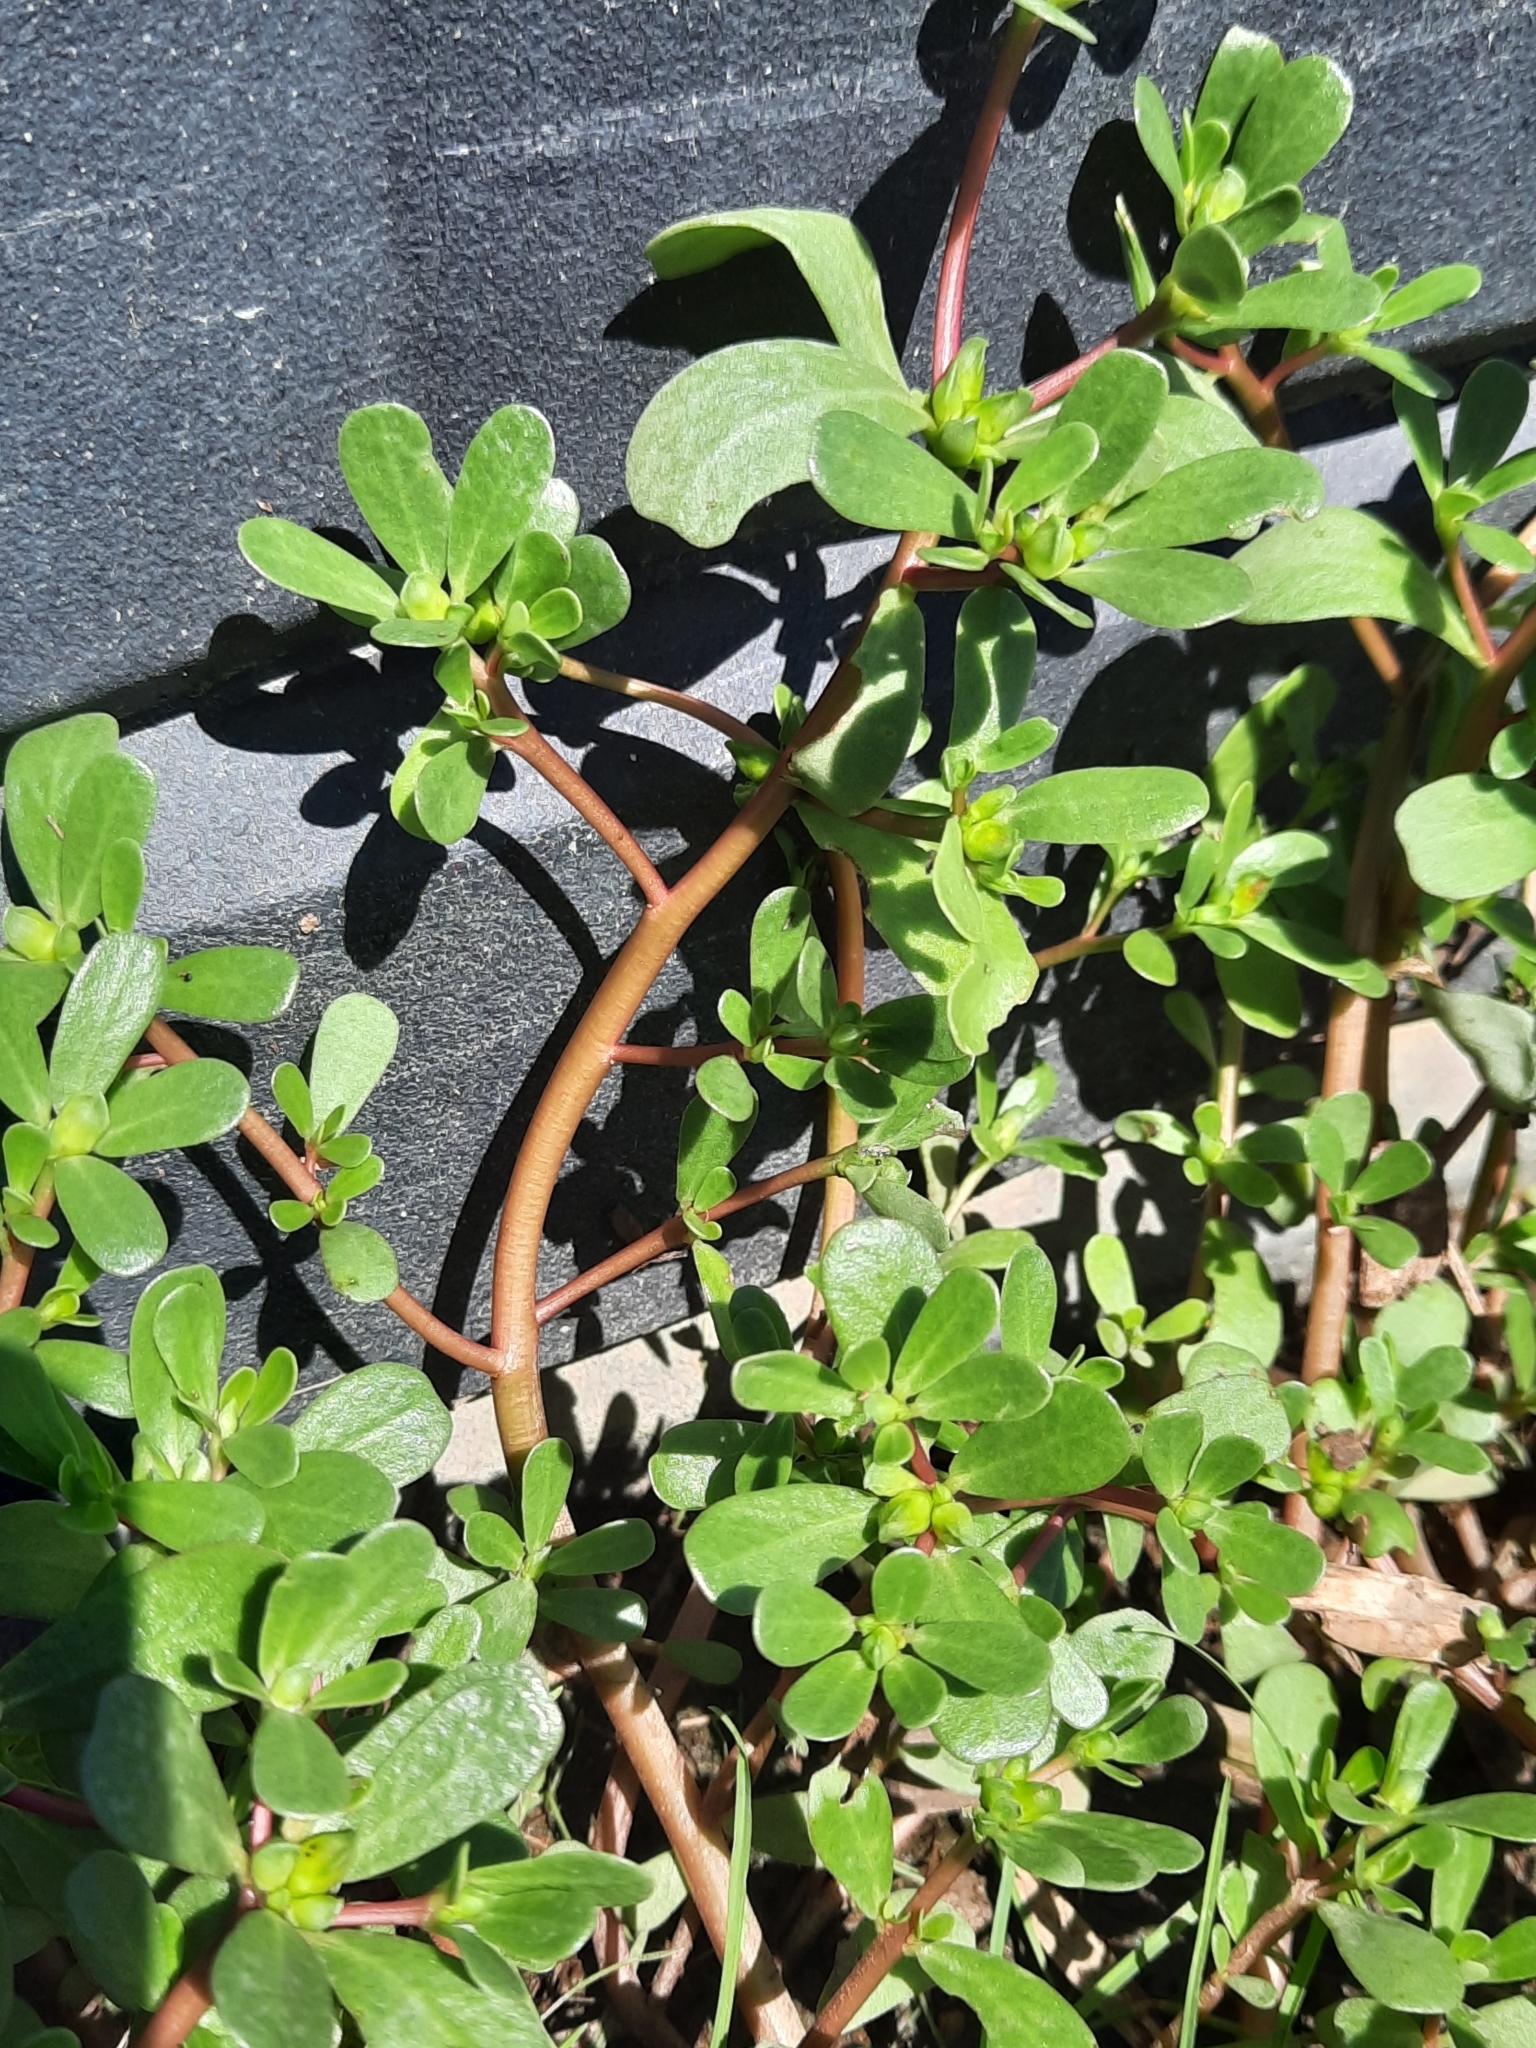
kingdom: Plantae
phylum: Tracheophyta
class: Magnoliopsida
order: Caryophyllales
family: Portulacaceae
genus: Portulaca
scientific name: Portulaca oleracea
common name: Common purslane
